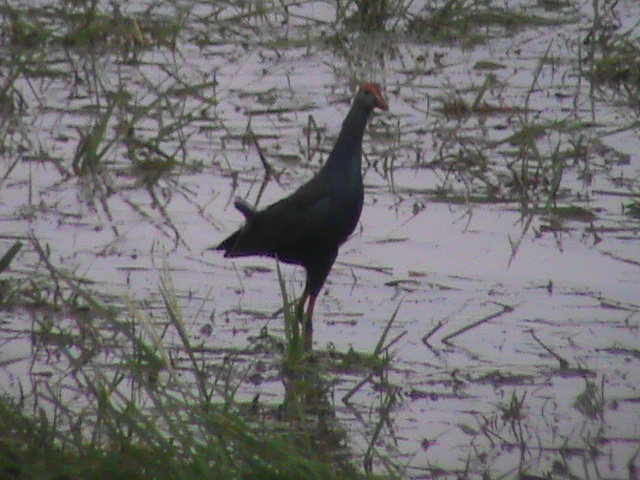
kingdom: Animalia
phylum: Chordata
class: Aves
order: Gruiformes
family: Rallidae
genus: Porphyrio
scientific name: Porphyrio porphyrio
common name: Purple swamphen
